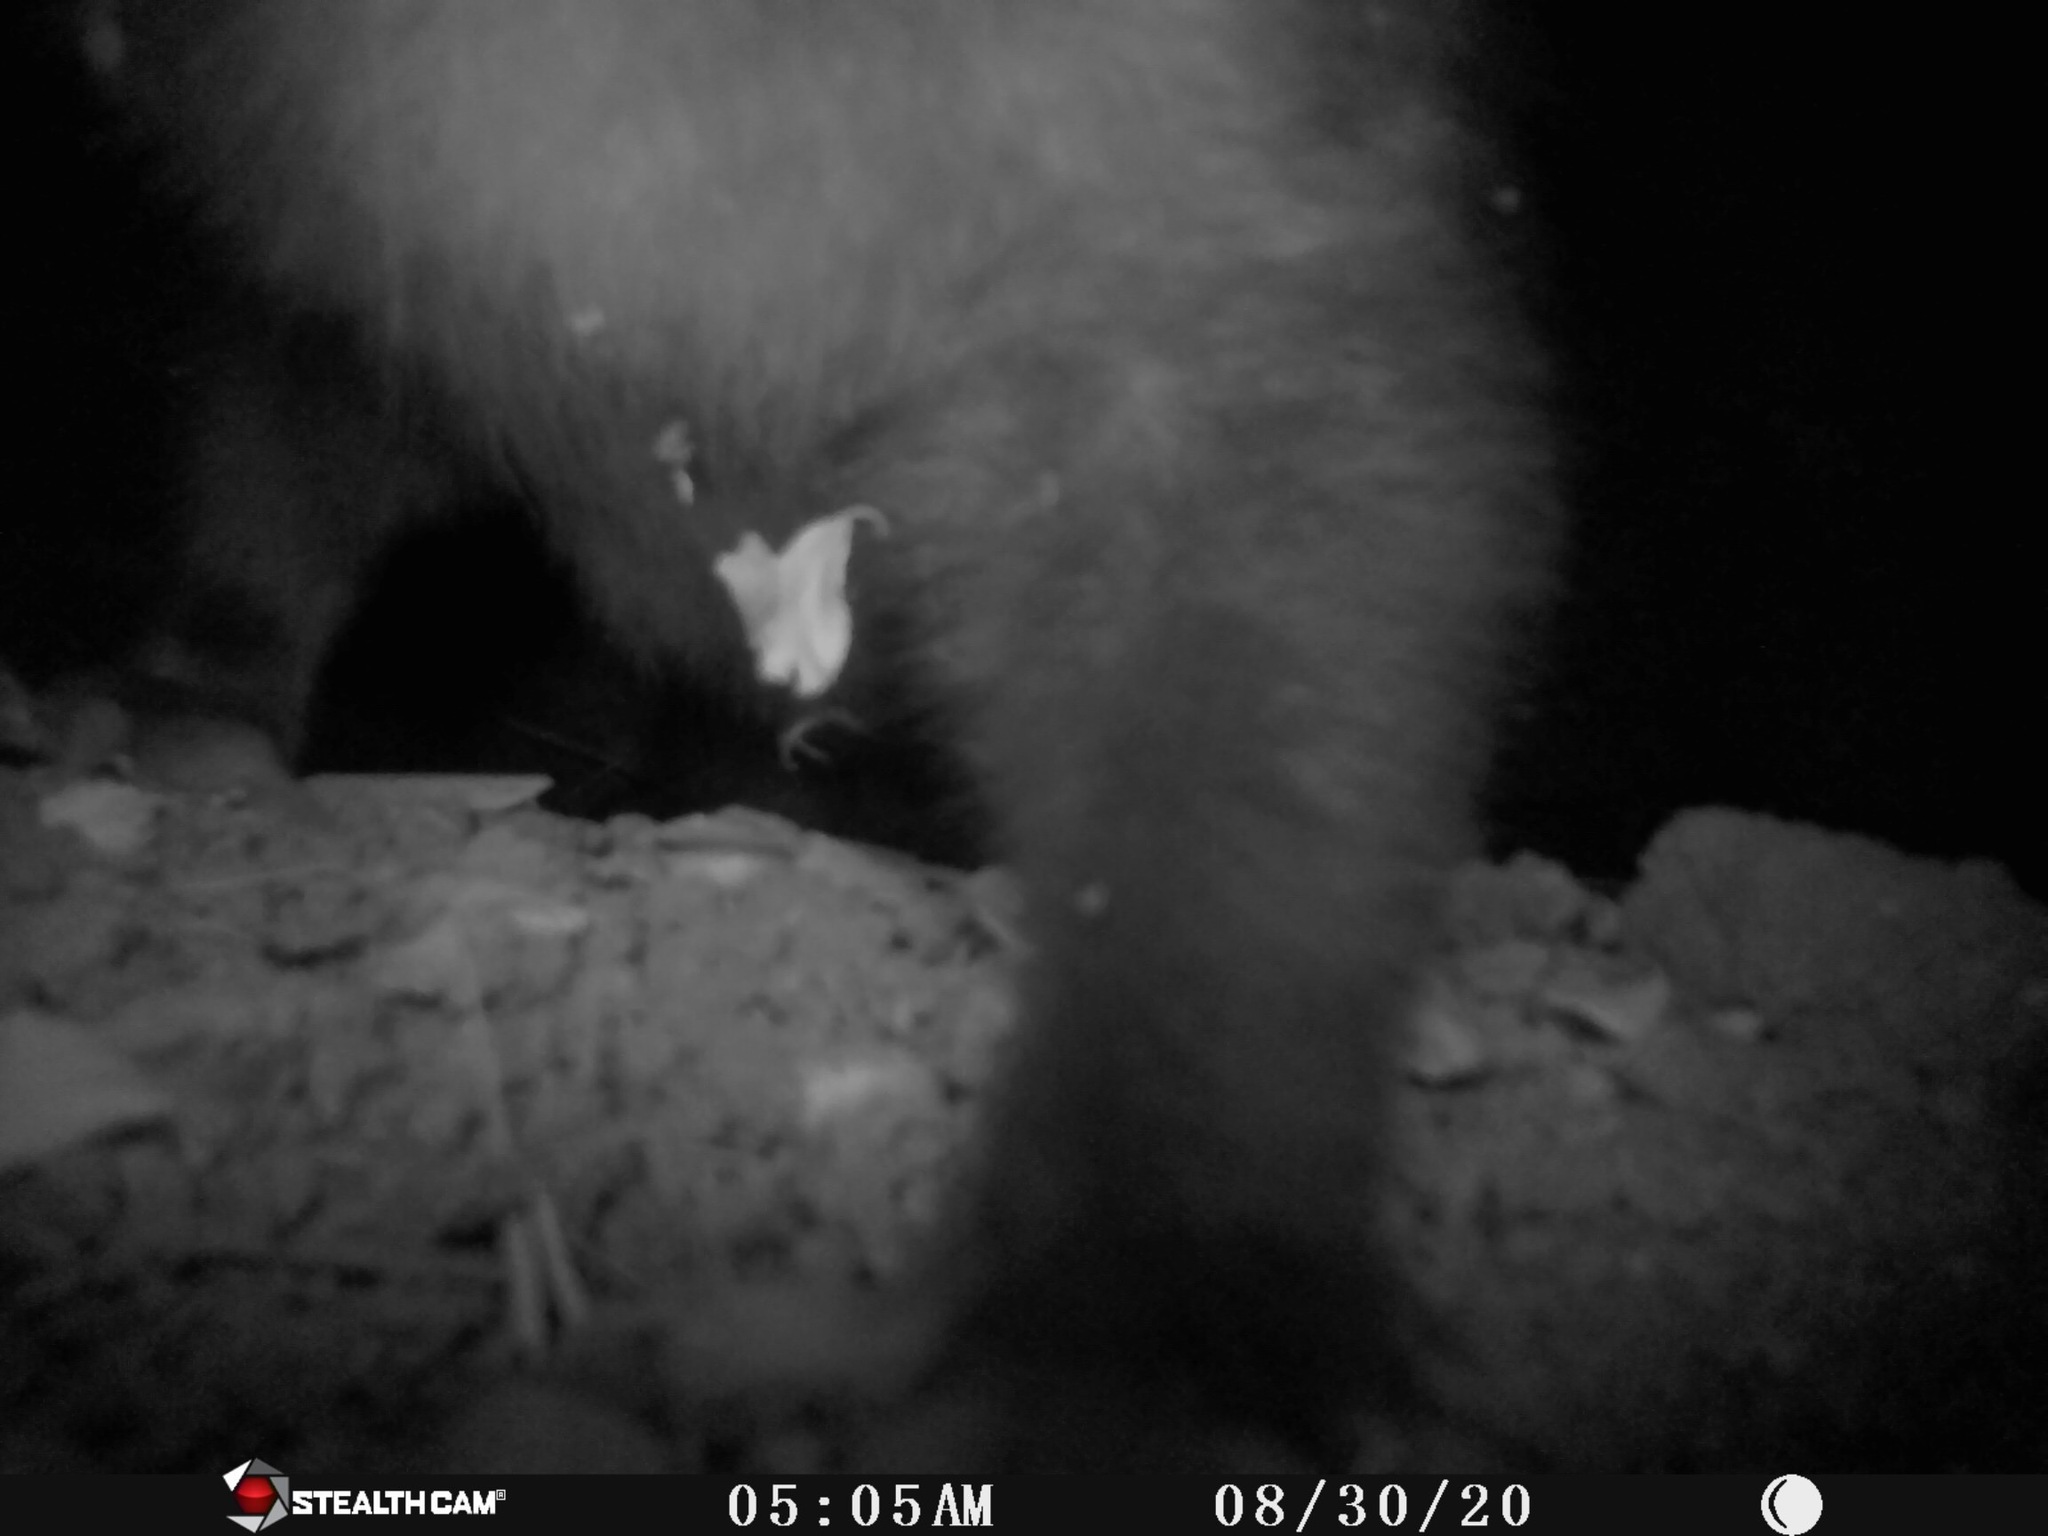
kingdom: Animalia
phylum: Chordata
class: Mammalia
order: Didelphimorphia
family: Didelphidae
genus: Didelphis
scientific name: Didelphis virginiana
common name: Virginia opossum
